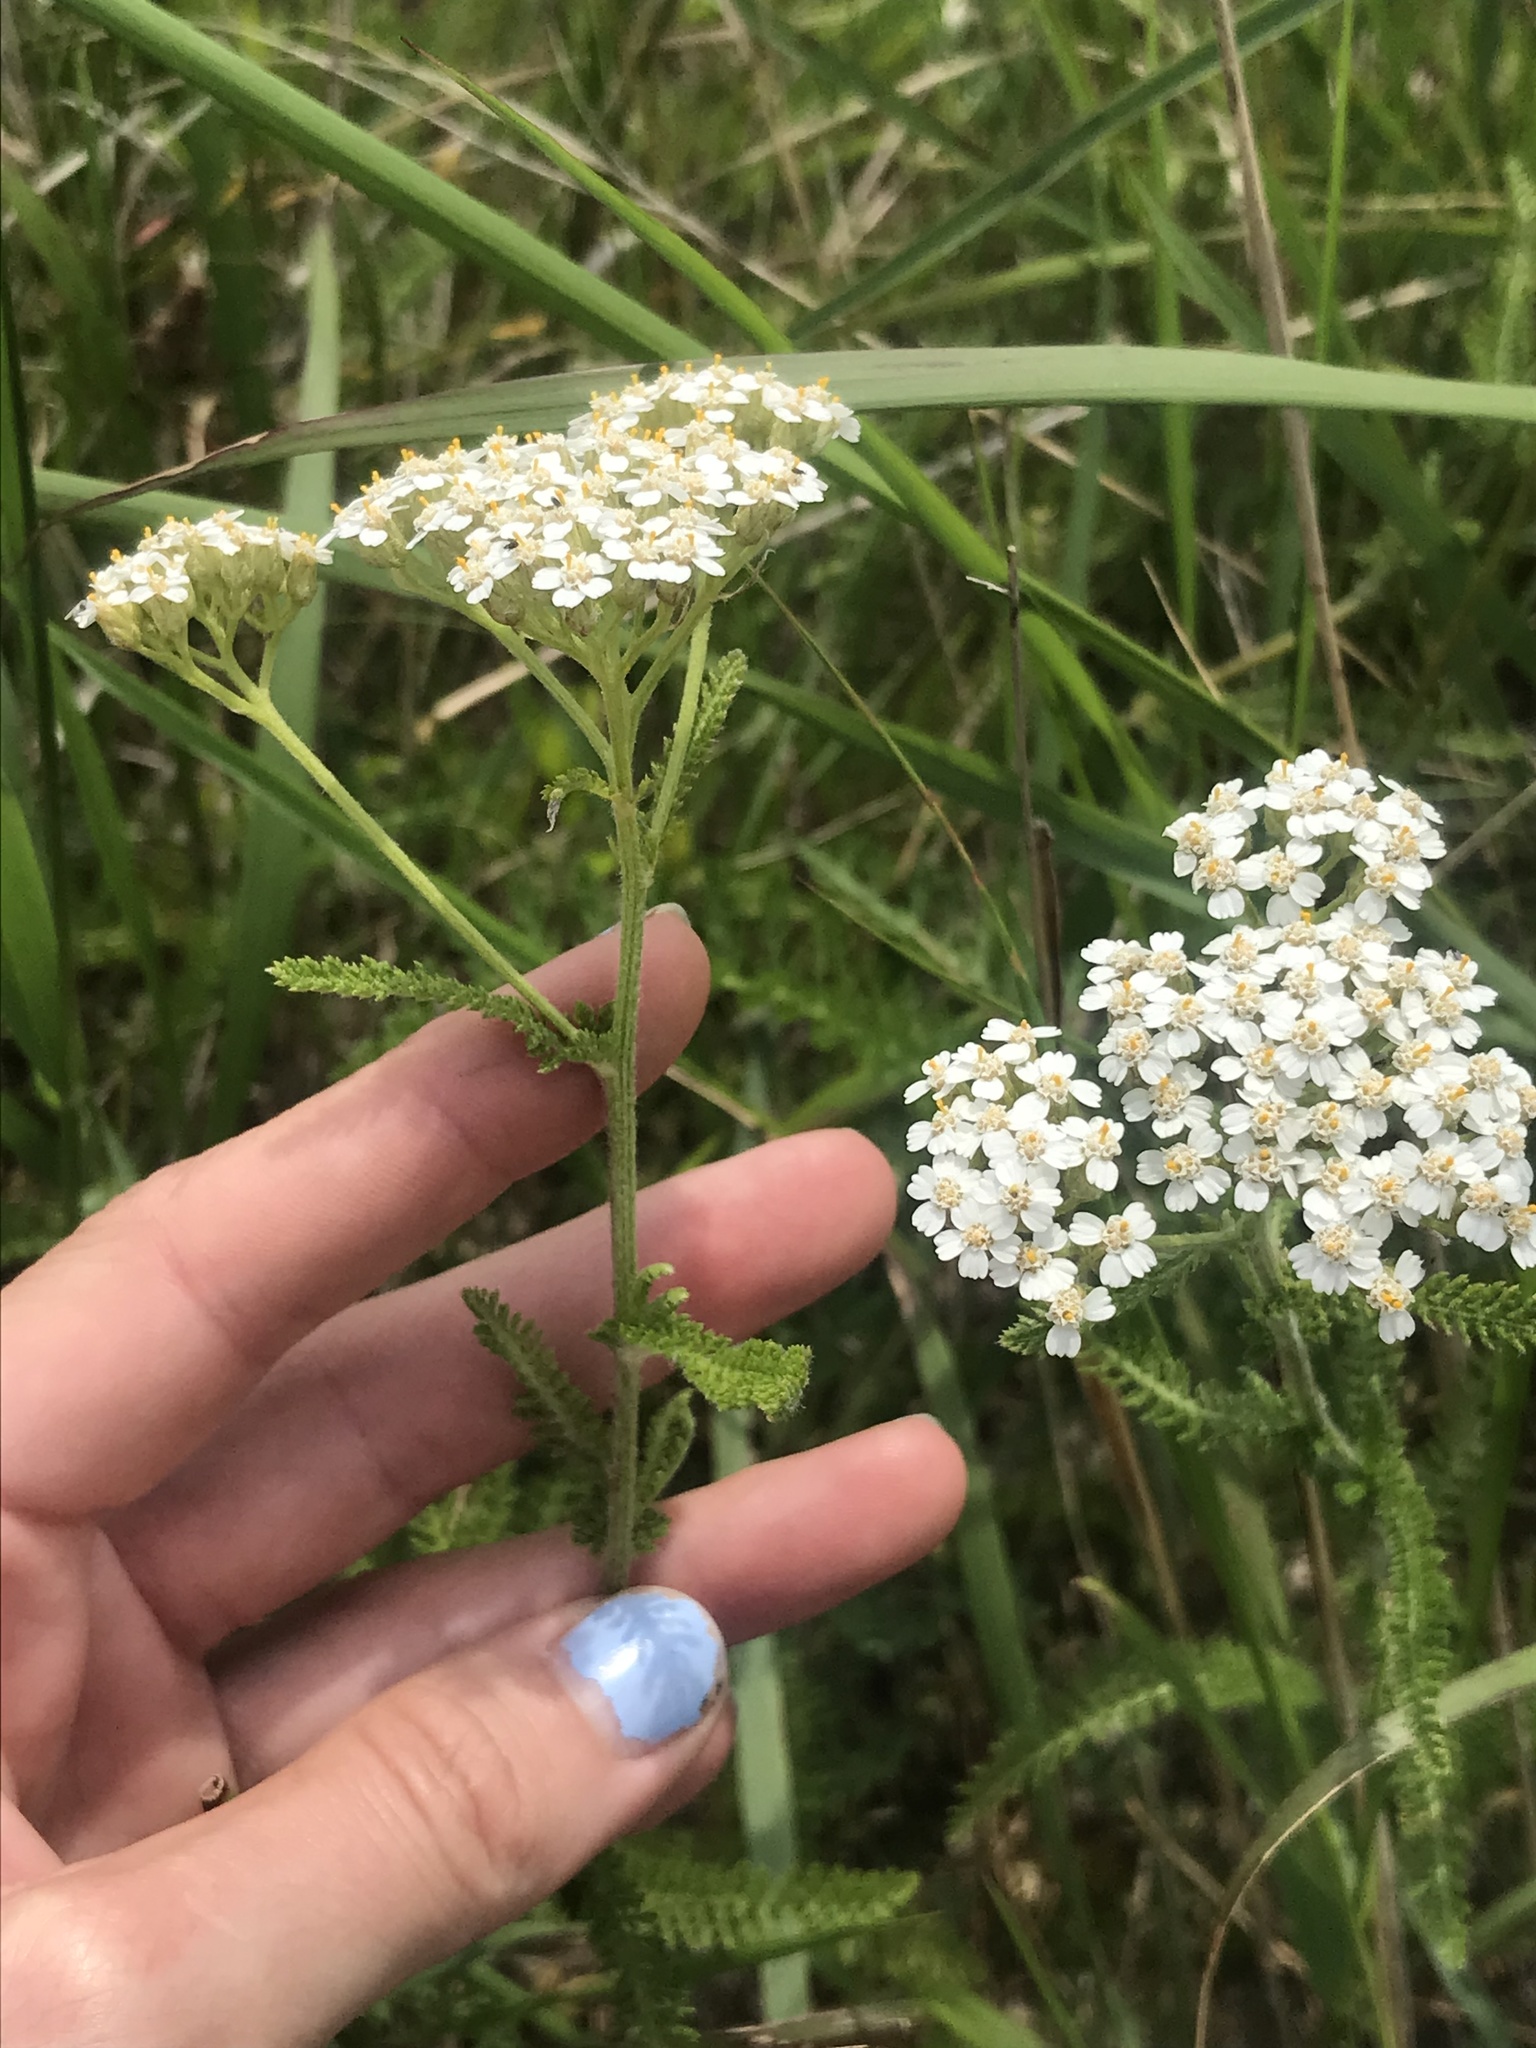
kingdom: Plantae
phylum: Tracheophyta
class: Magnoliopsida
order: Asterales
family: Asteraceae
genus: Achillea
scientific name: Achillea millefolium
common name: Yarrow
